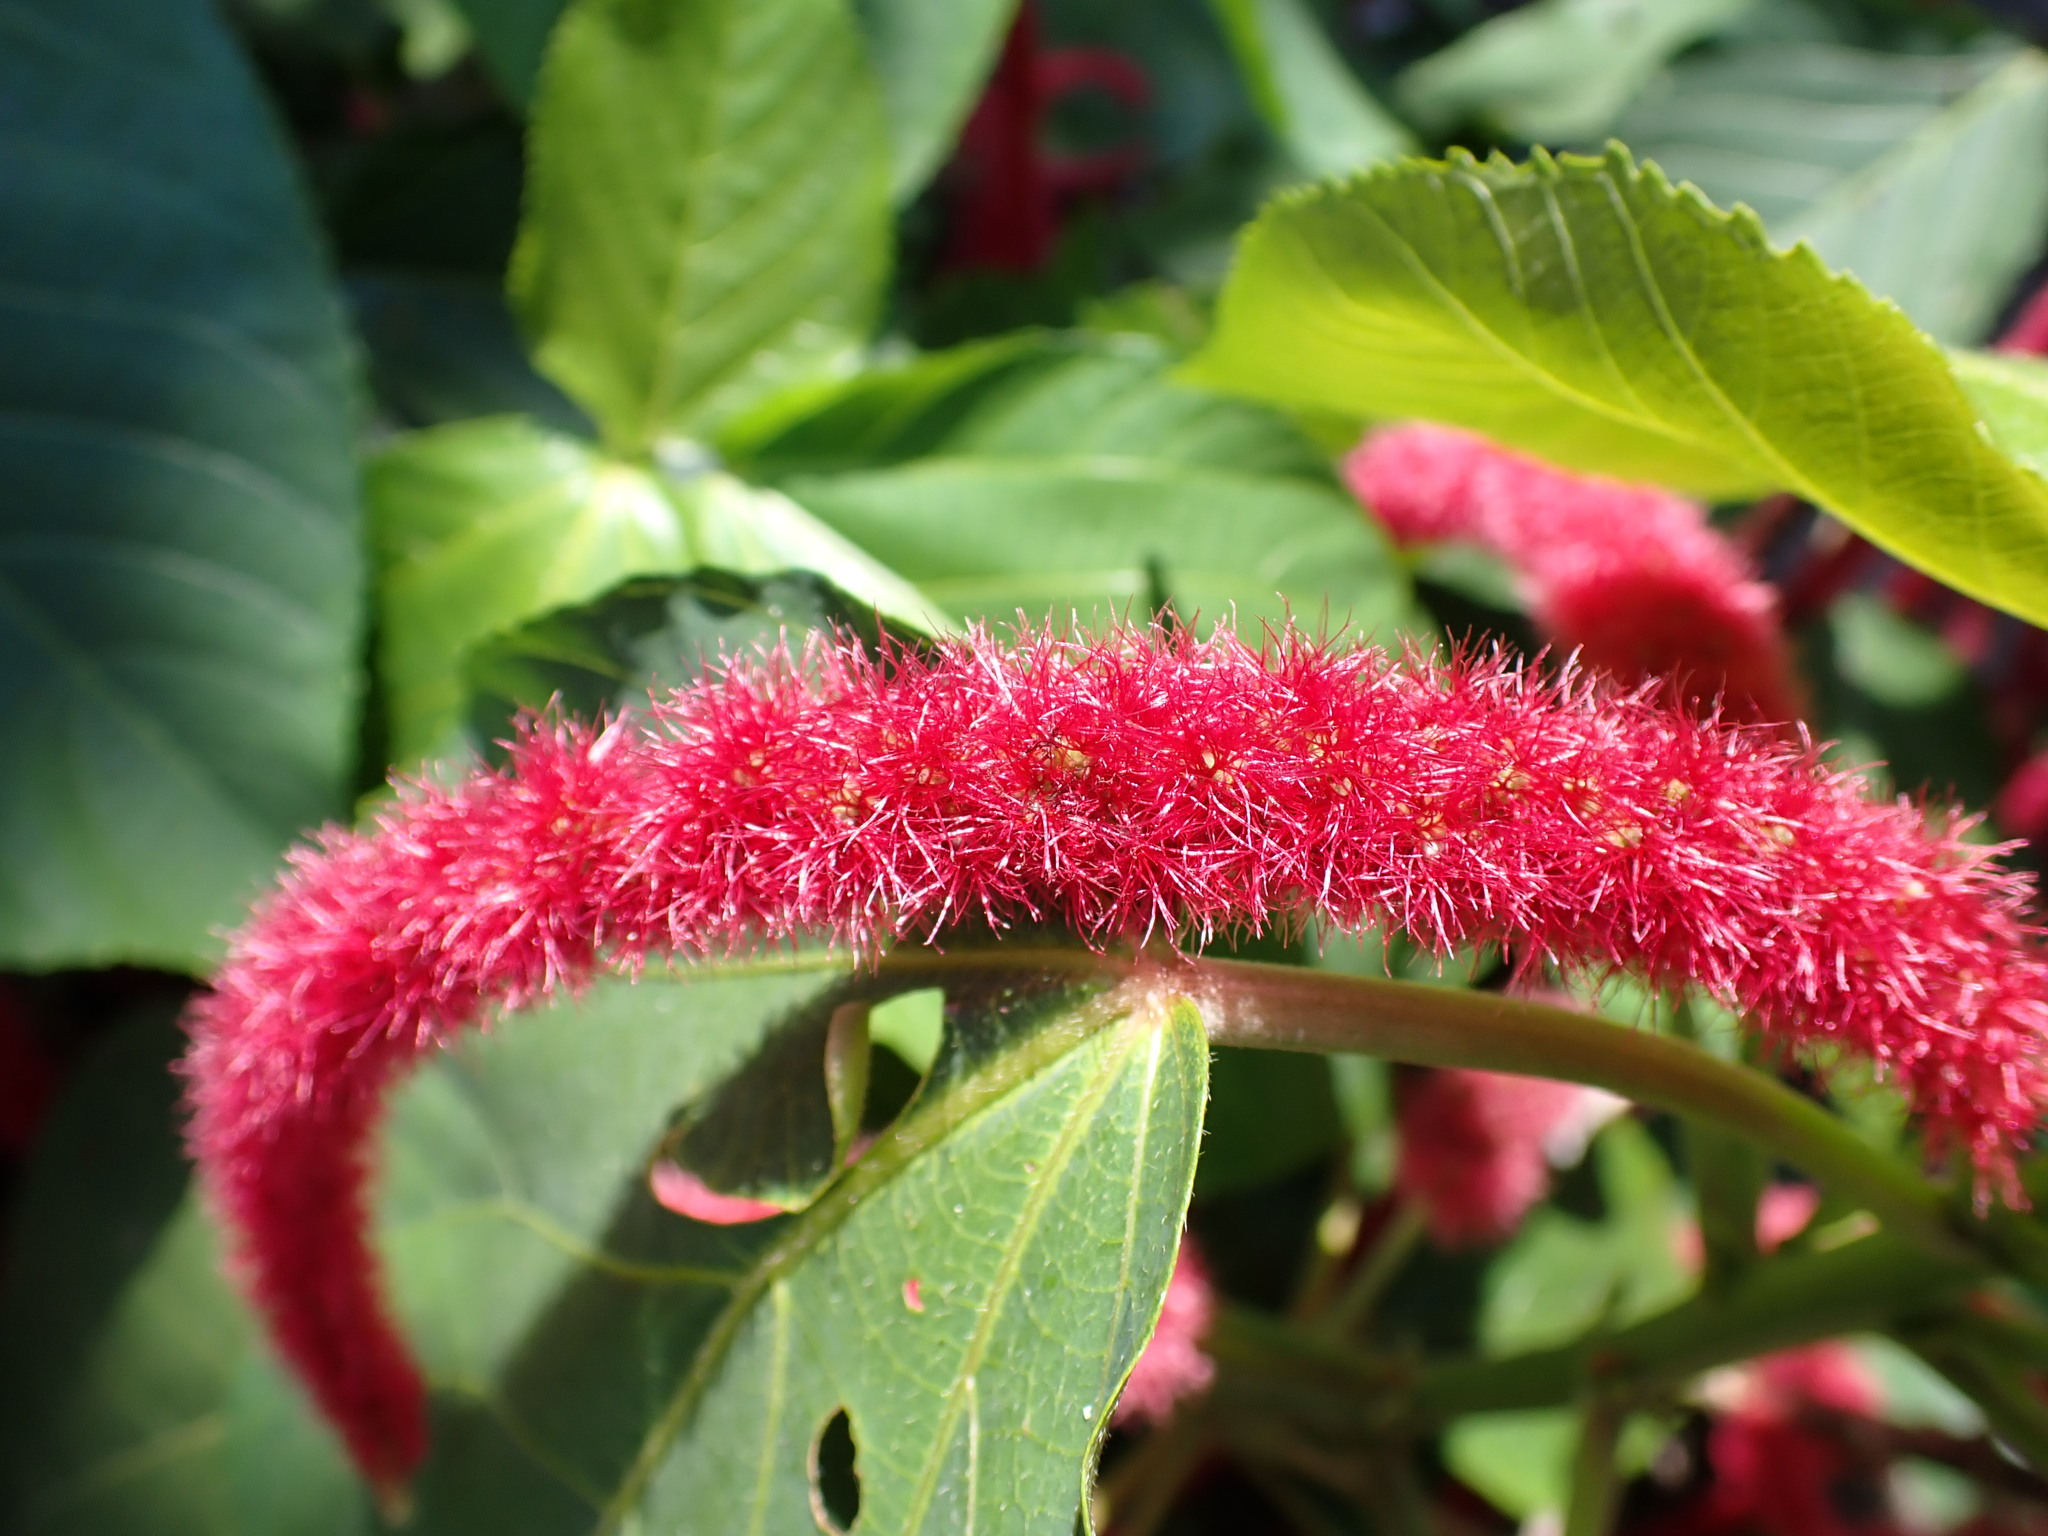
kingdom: Plantae
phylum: Tracheophyta
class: Magnoliopsida
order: Malpighiales
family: Euphorbiaceae
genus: Acalypha
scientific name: Acalypha hispida
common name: Chenilleplant
